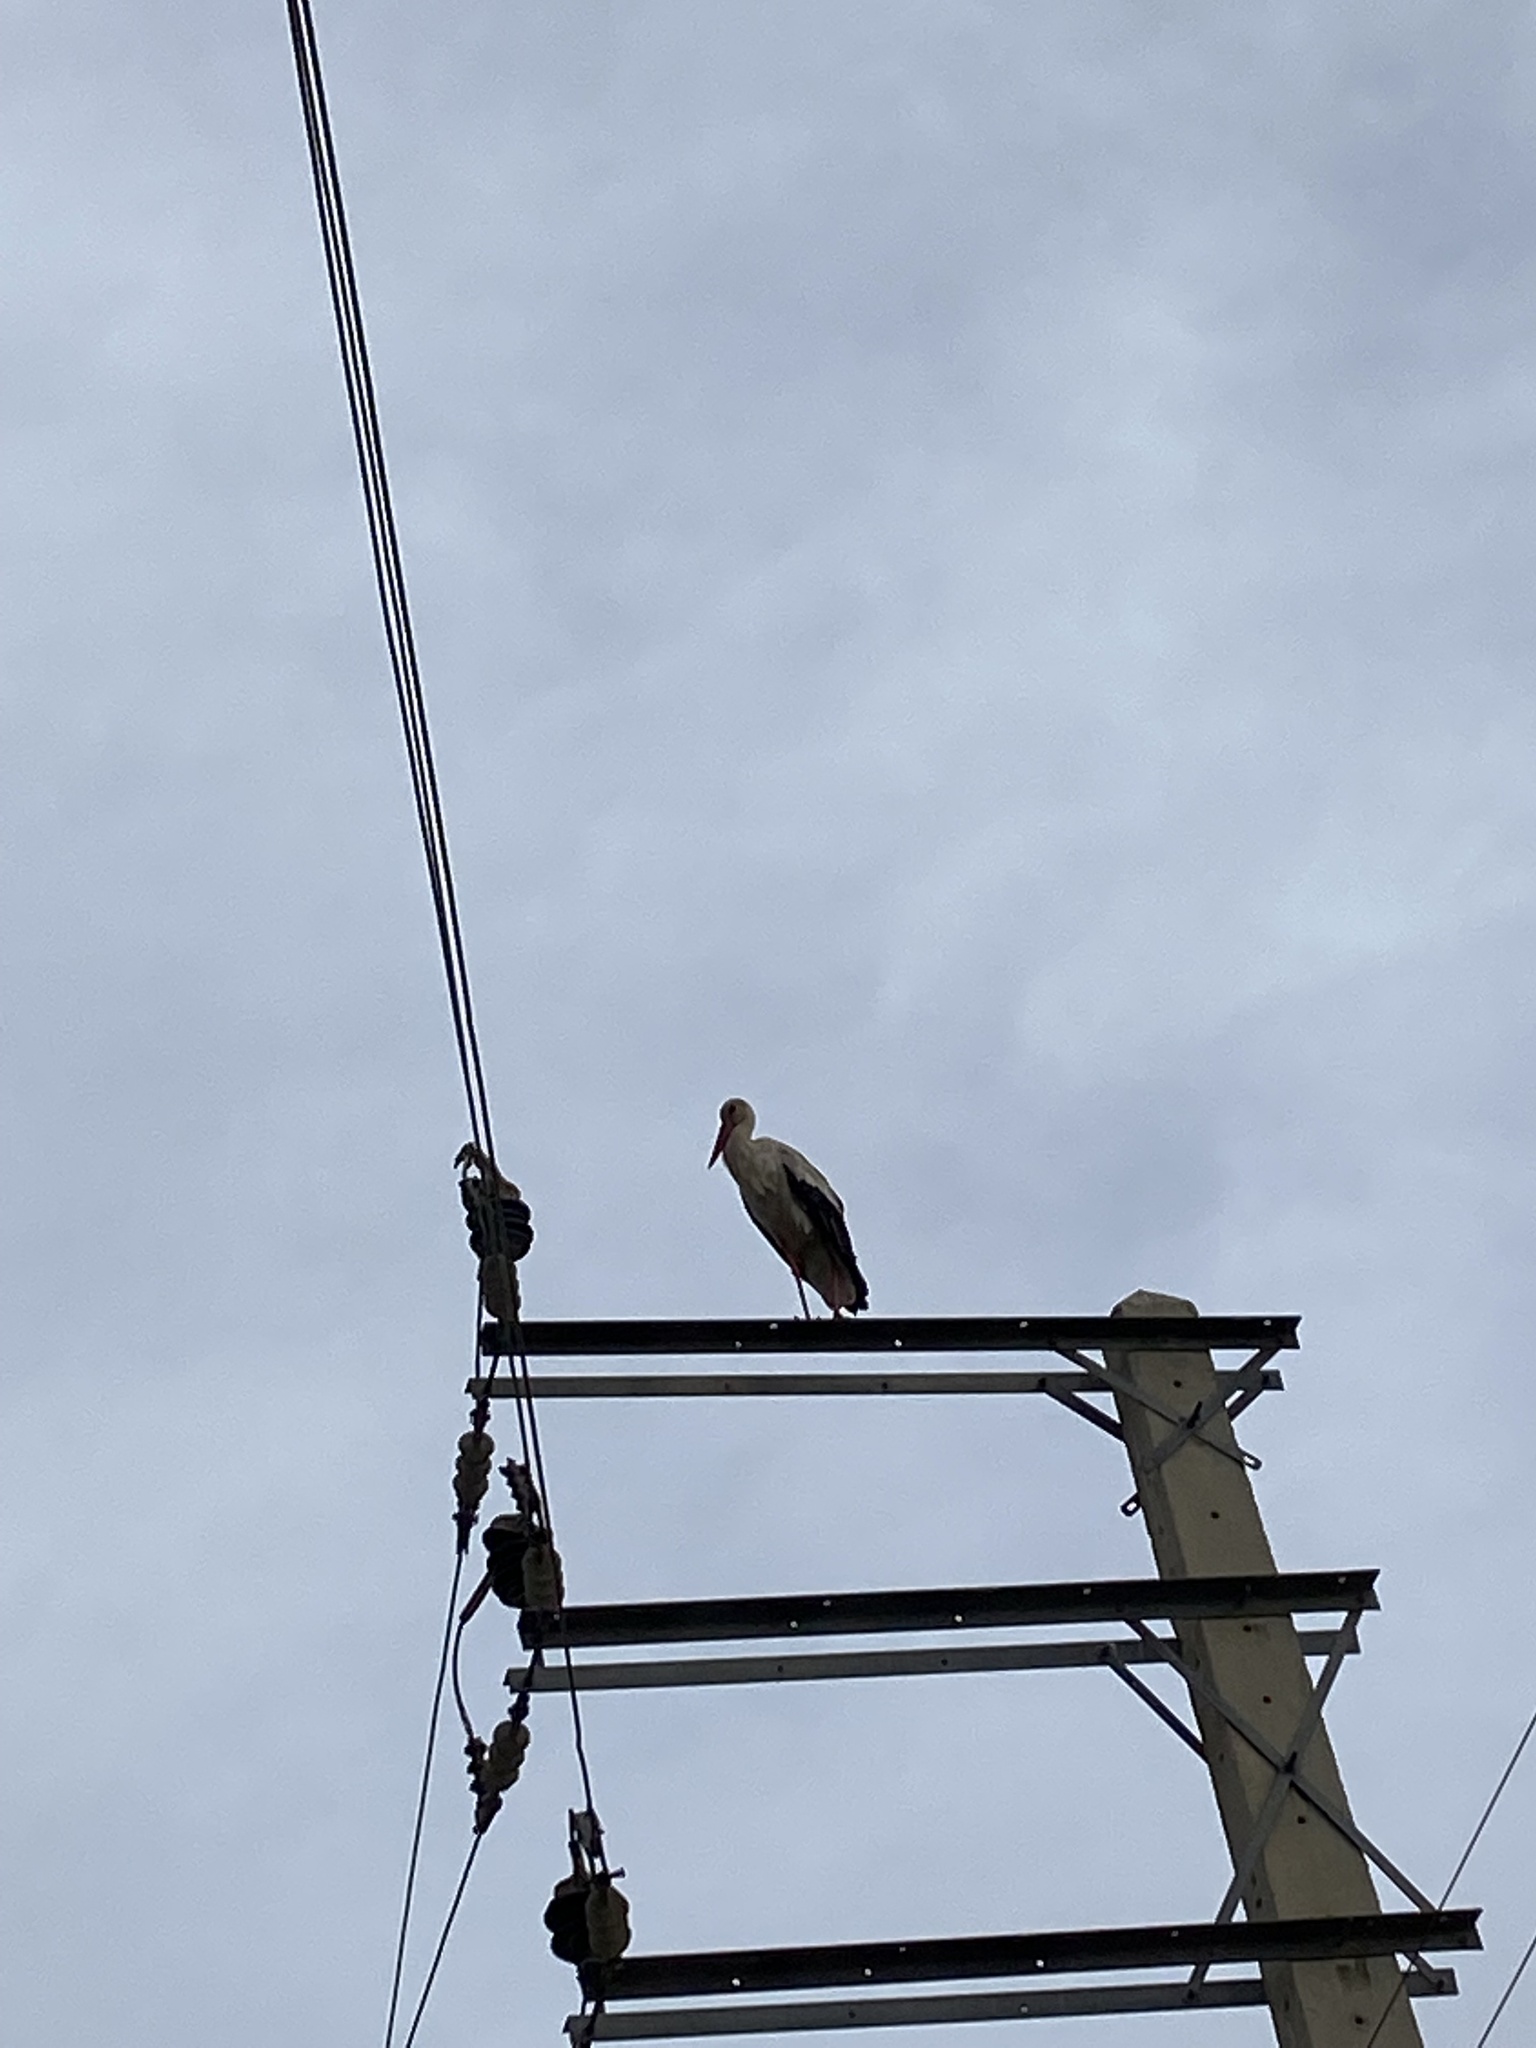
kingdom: Animalia
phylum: Chordata
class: Aves
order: Ciconiiformes
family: Ciconiidae
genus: Ciconia
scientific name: Ciconia ciconia
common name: White stork
